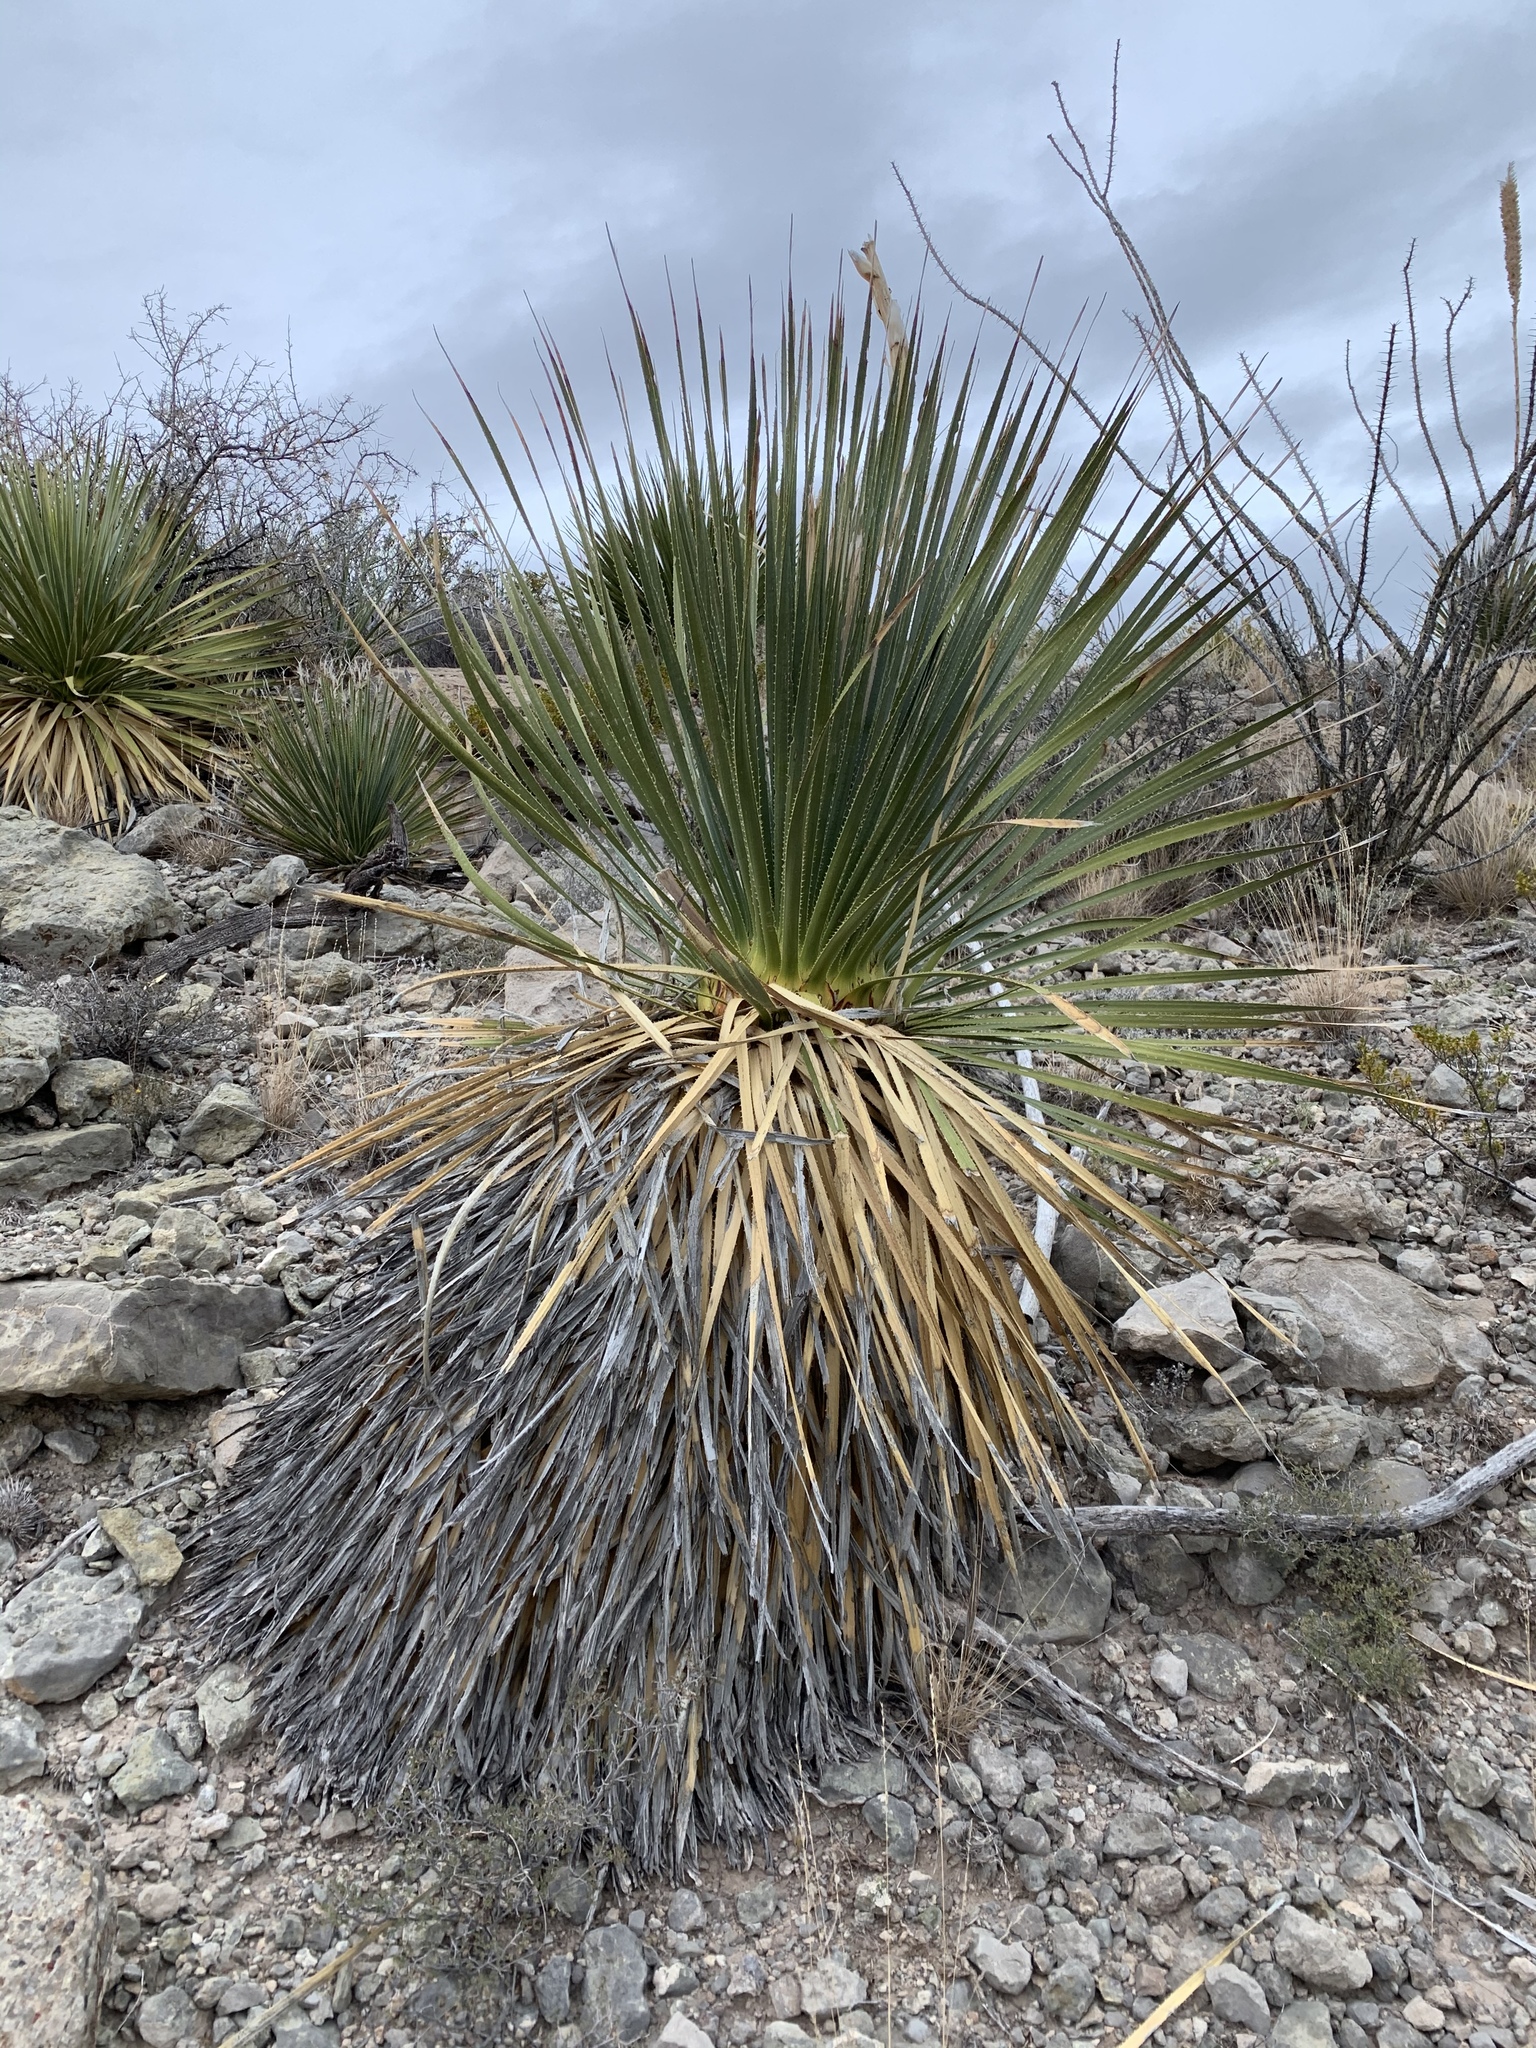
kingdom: Plantae
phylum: Tracheophyta
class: Liliopsida
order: Asparagales
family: Asparagaceae
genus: Dasylirion
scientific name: Dasylirion wheeleri
